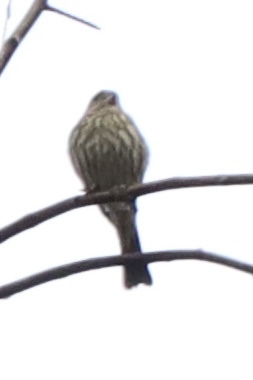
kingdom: Animalia
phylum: Chordata
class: Aves
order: Passeriformes
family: Fringillidae
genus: Spinus
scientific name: Spinus pinus
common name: Pine siskin
